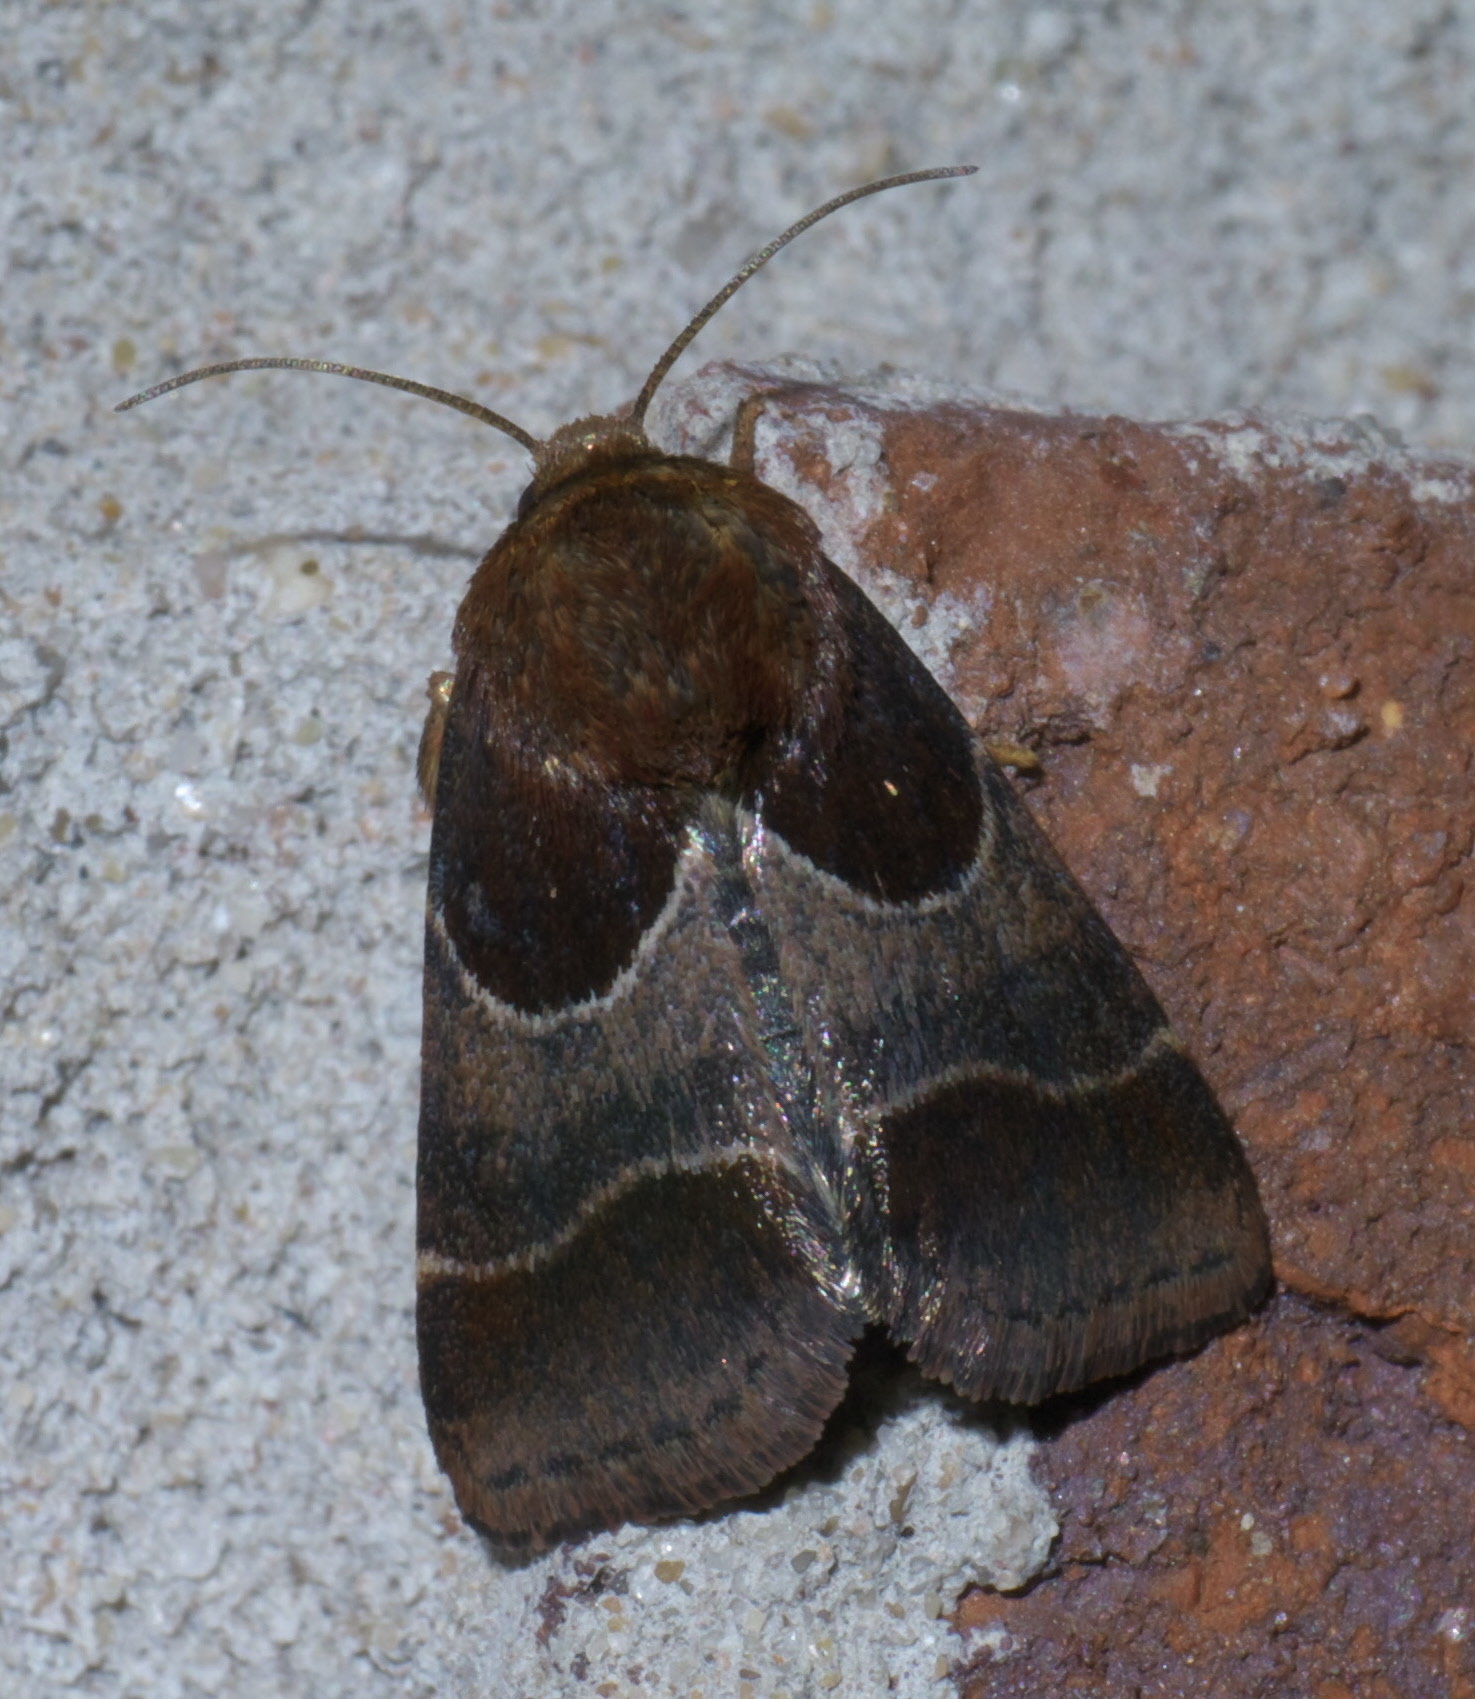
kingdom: Animalia
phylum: Arthropoda
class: Insecta
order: Lepidoptera
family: Noctuidae
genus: Schinia
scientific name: Schinia arcigera
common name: Arcigera flower moth
